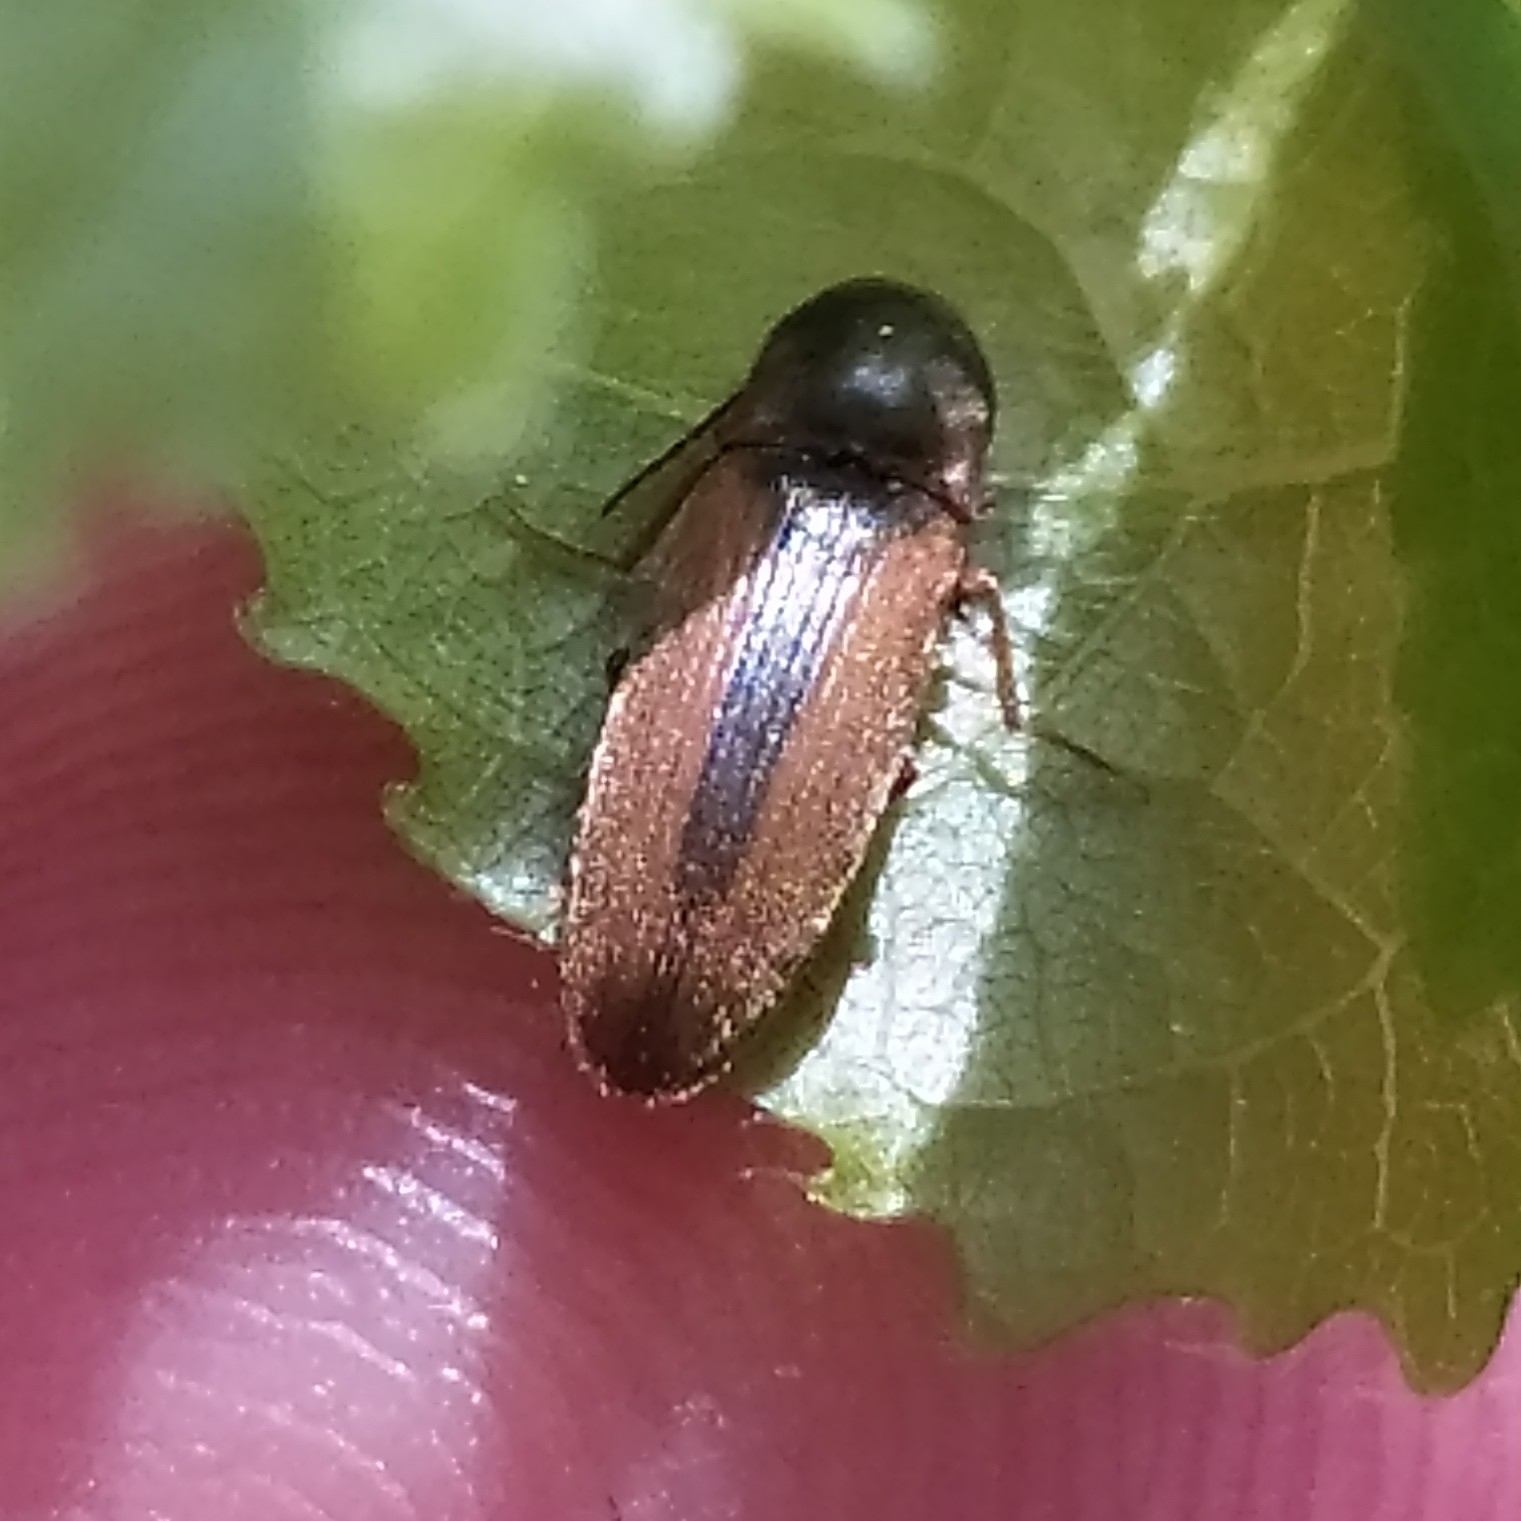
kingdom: Animalia
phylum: Arthropoda
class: Insecta
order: Coleoptera
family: Elateridae
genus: Dalopius
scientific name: Dalopius marginatus
